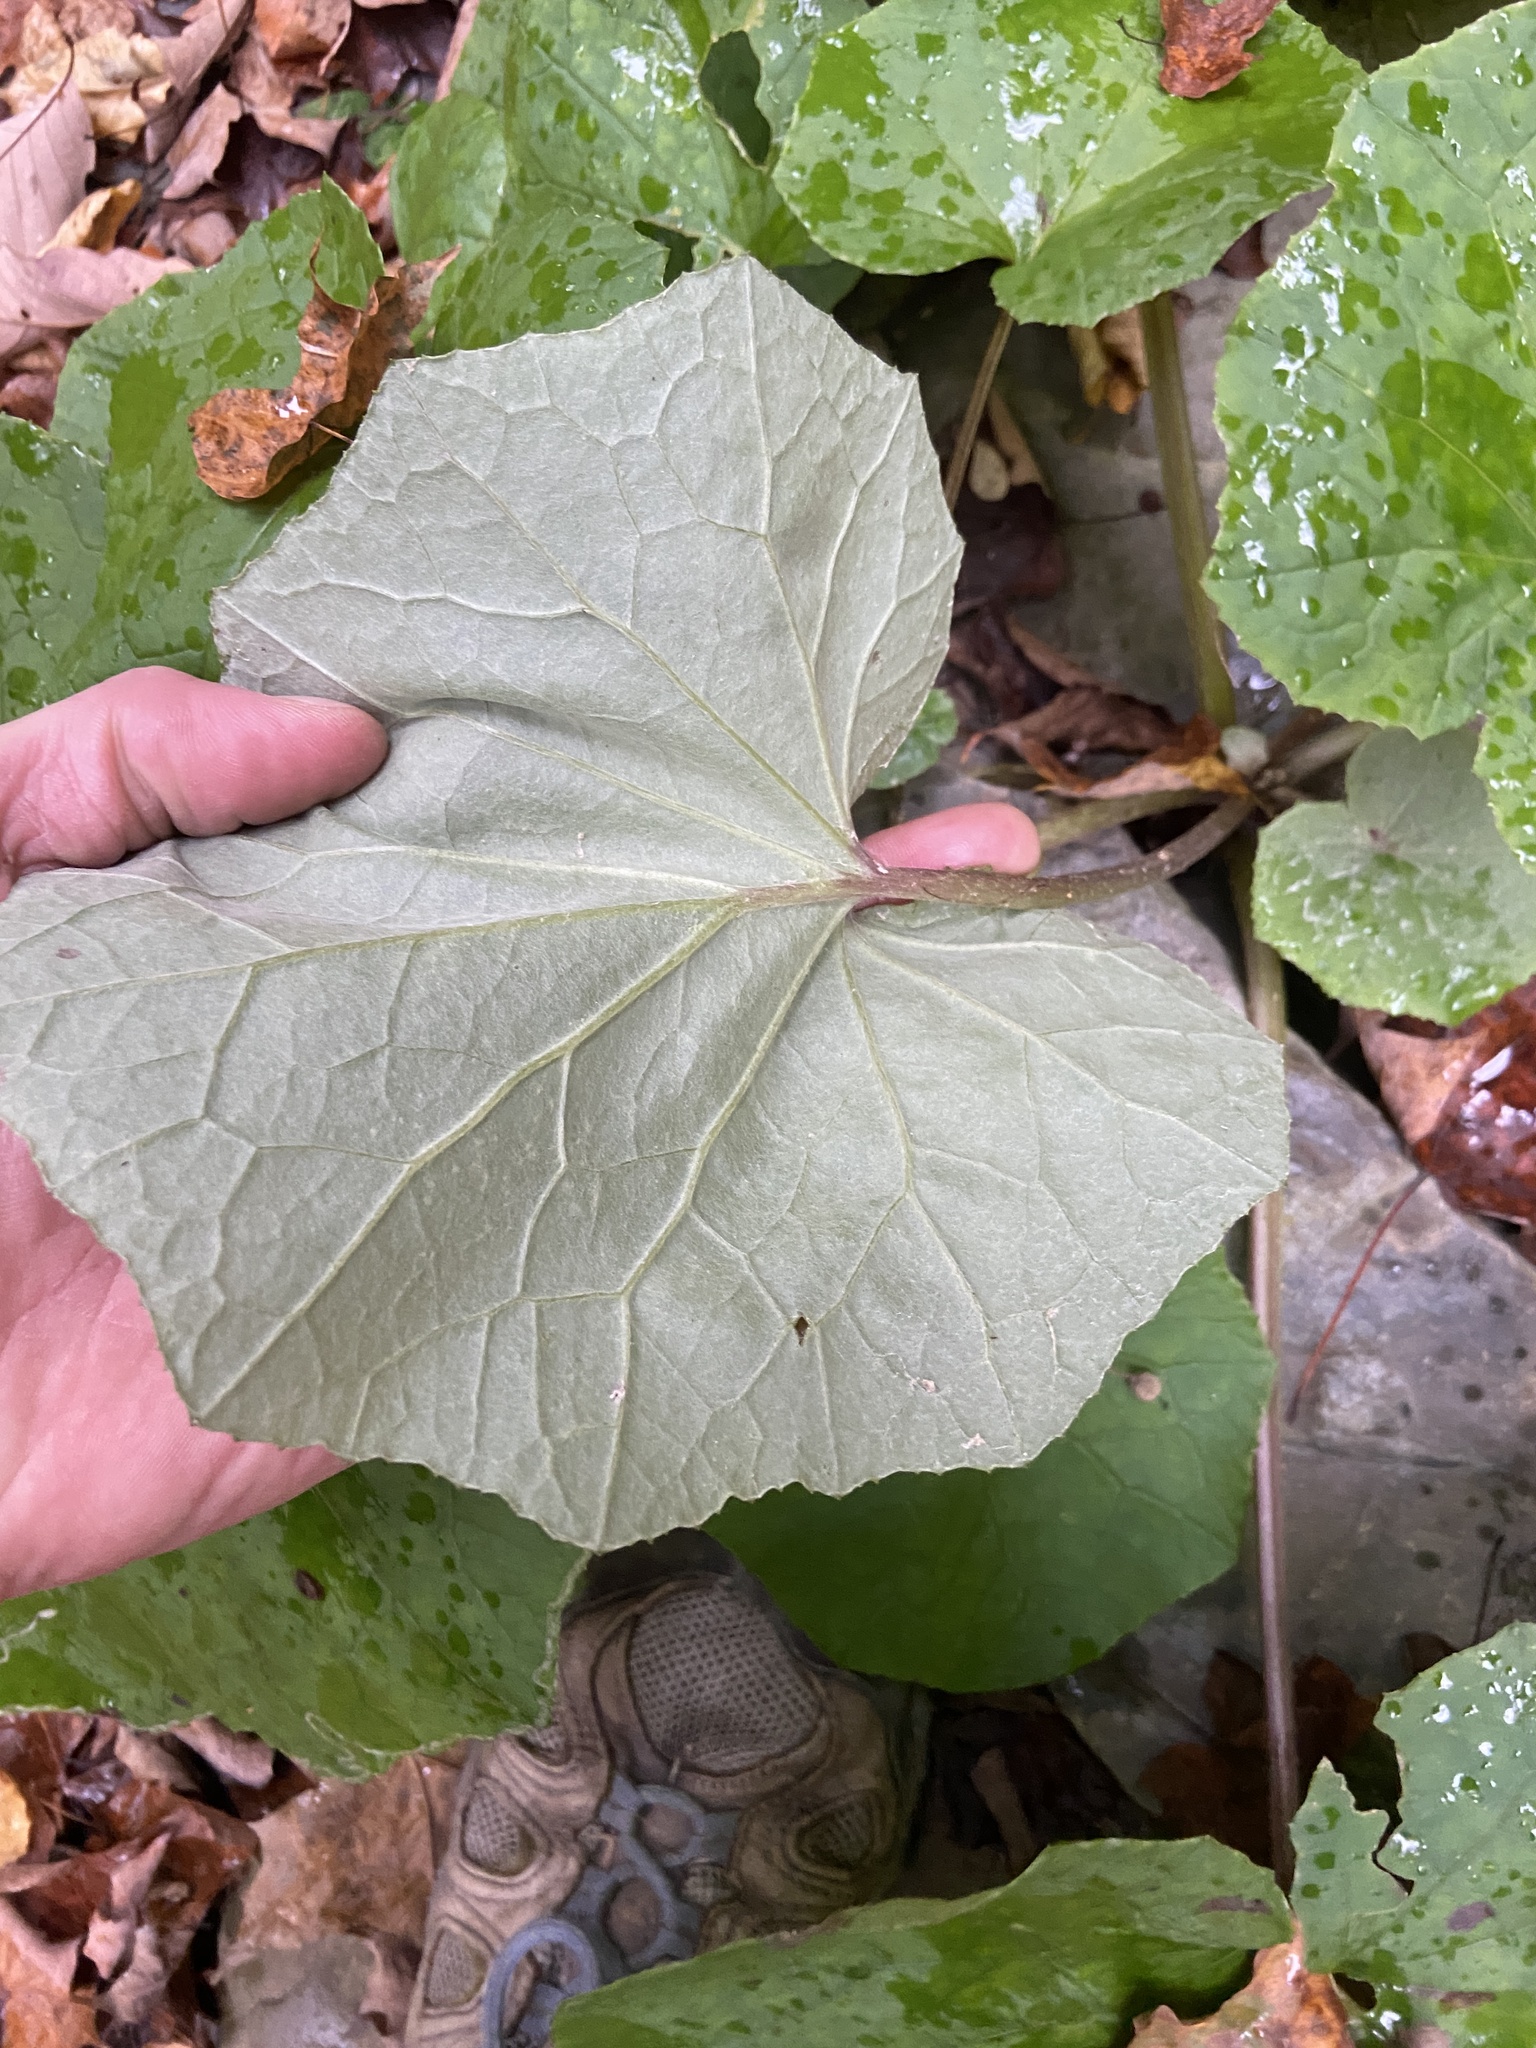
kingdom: Plantae
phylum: Tracheophyta
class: Magnoliopsida
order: Asterales
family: Asteraceae
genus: Tussilago
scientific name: Tussilago farfara
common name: Coltsfoot
